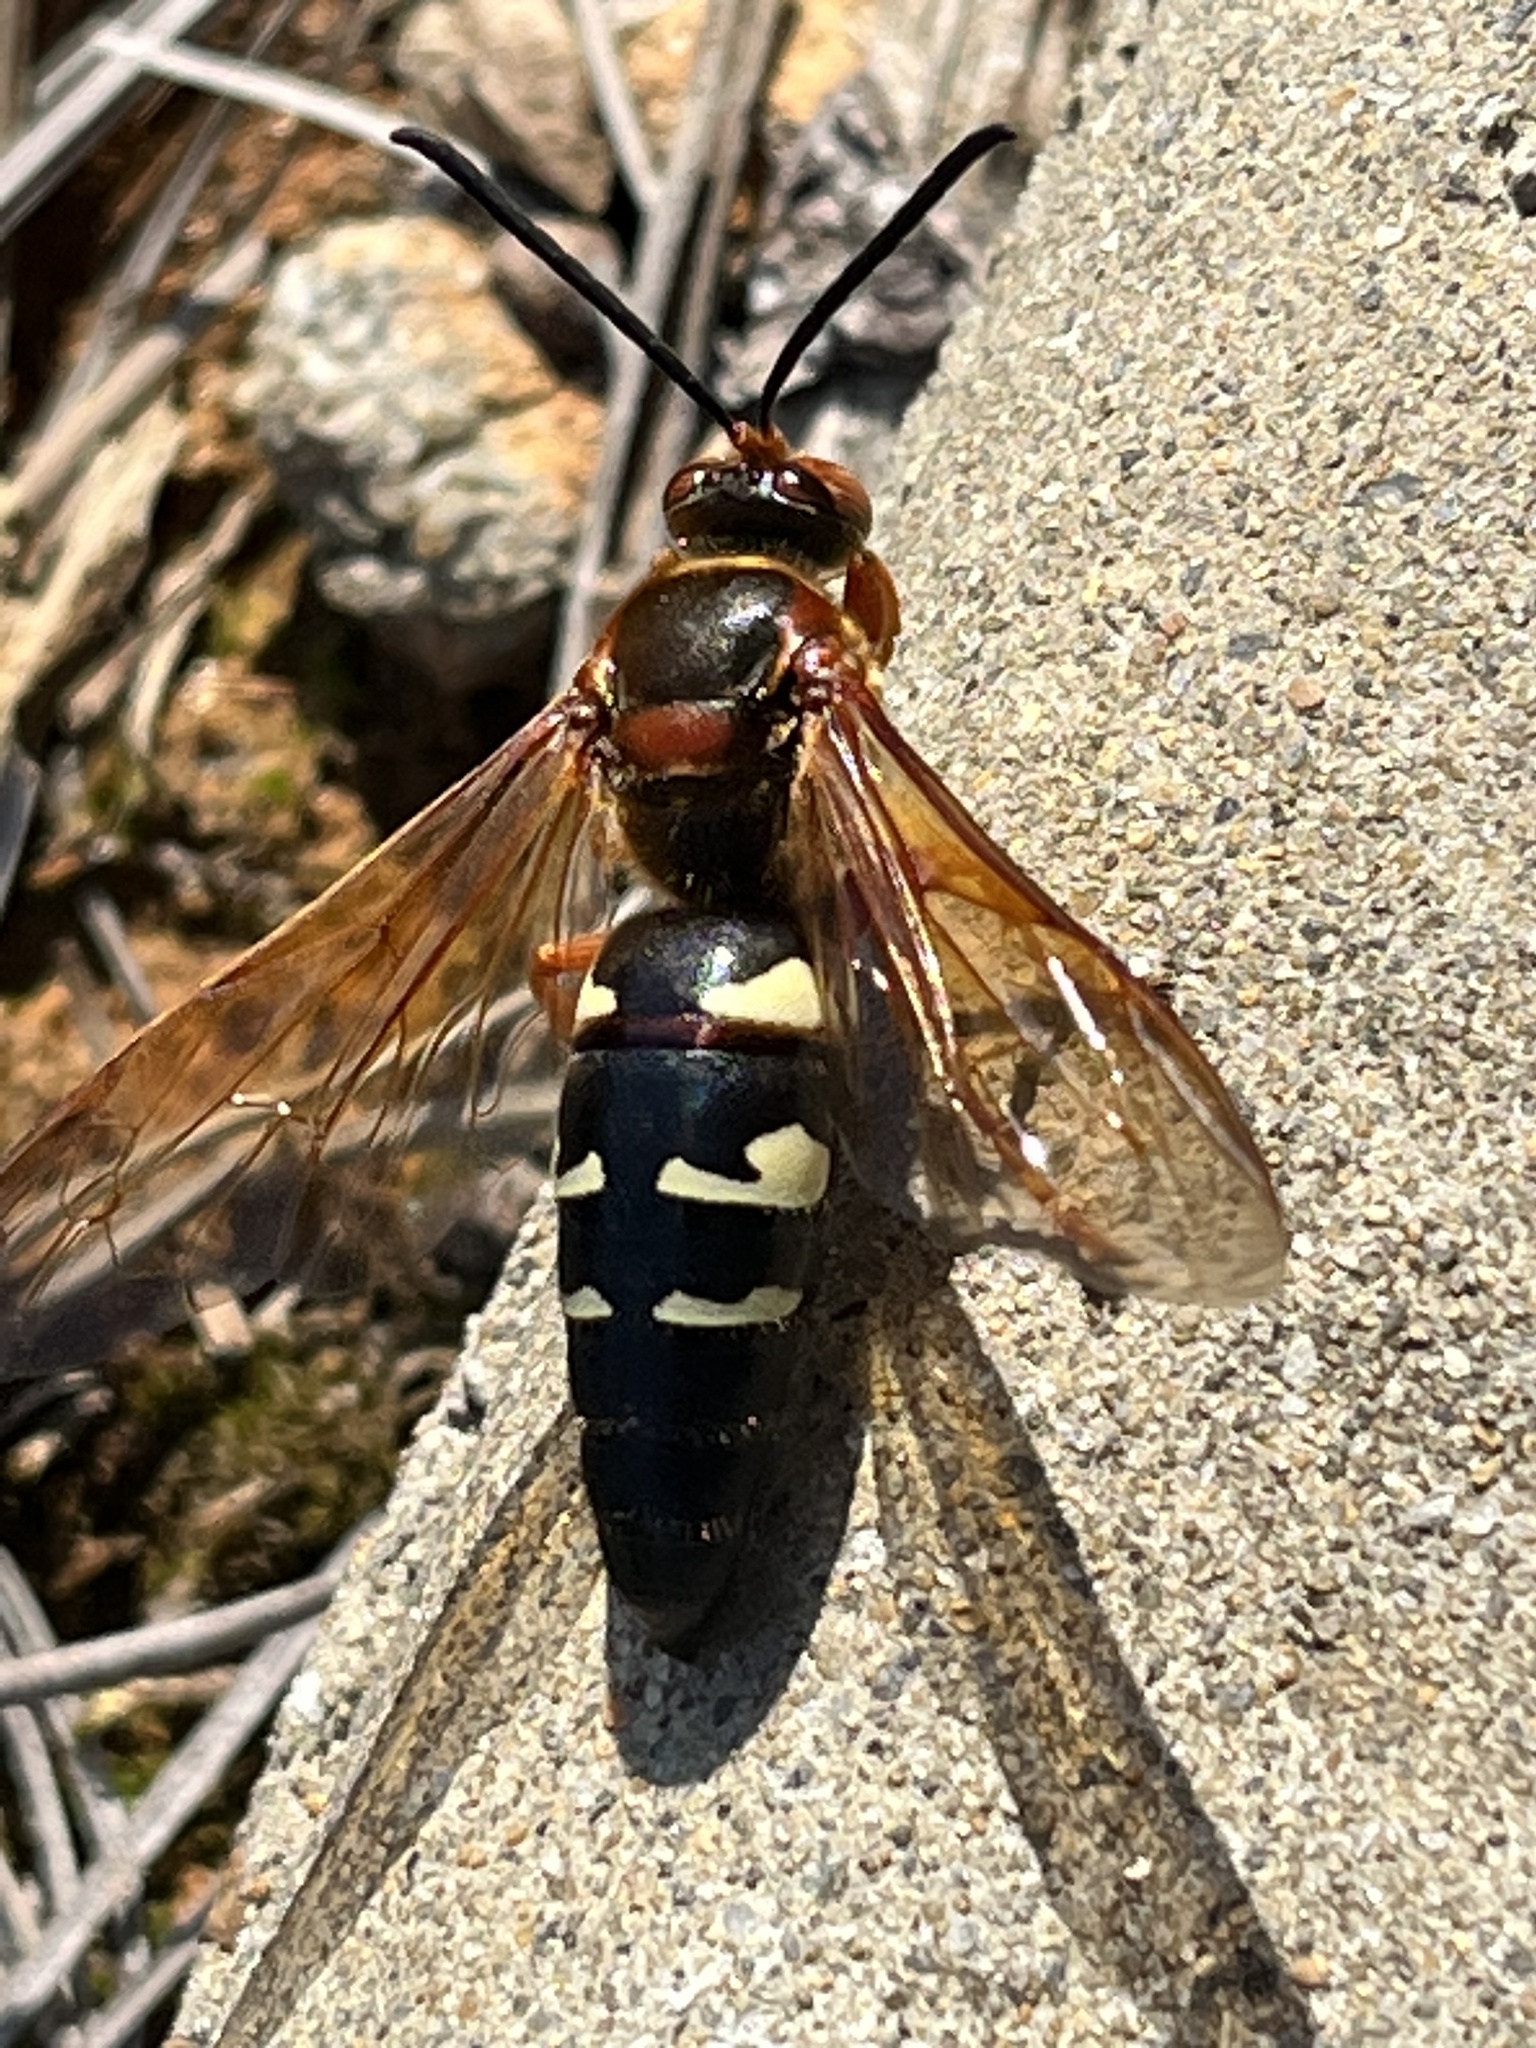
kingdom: Animalia
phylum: Arthropoda
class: Insecta
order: Hymenoptera
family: Crabronidae
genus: Sphecius
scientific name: Sphecius speciosus
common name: Cicada killer
